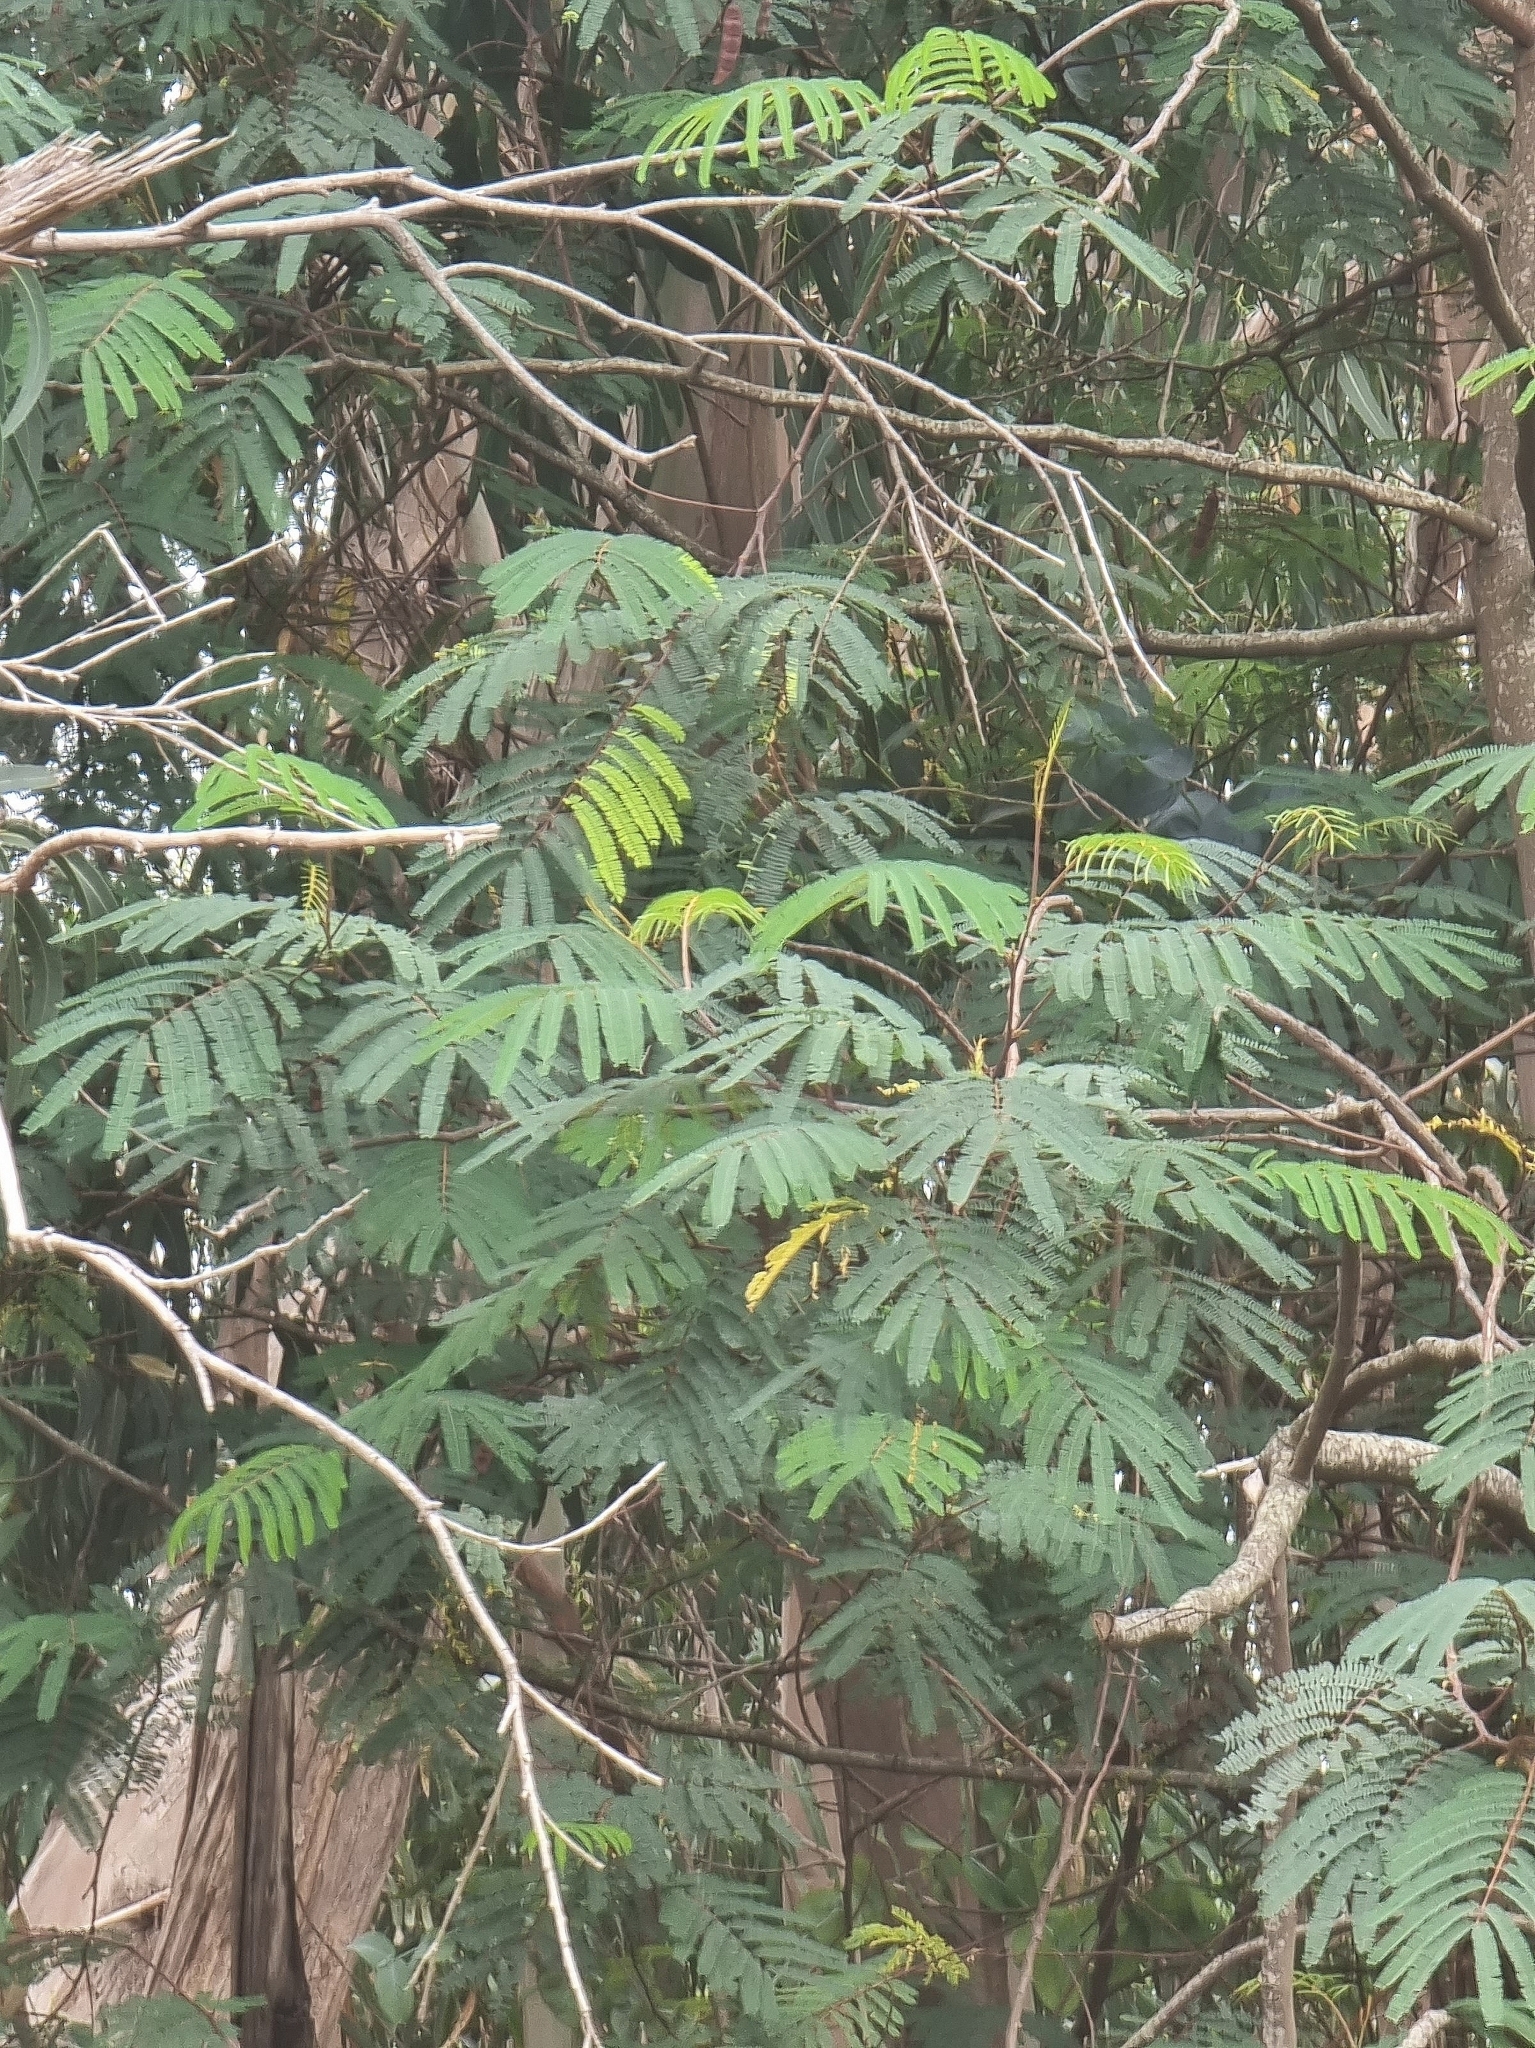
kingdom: Plantae
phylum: Tracheophyta
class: Magnoliopsida
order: Fabales
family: Fabaceae
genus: Paraserianthes
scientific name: Paraserianthes lophantha
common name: Plume albizia
